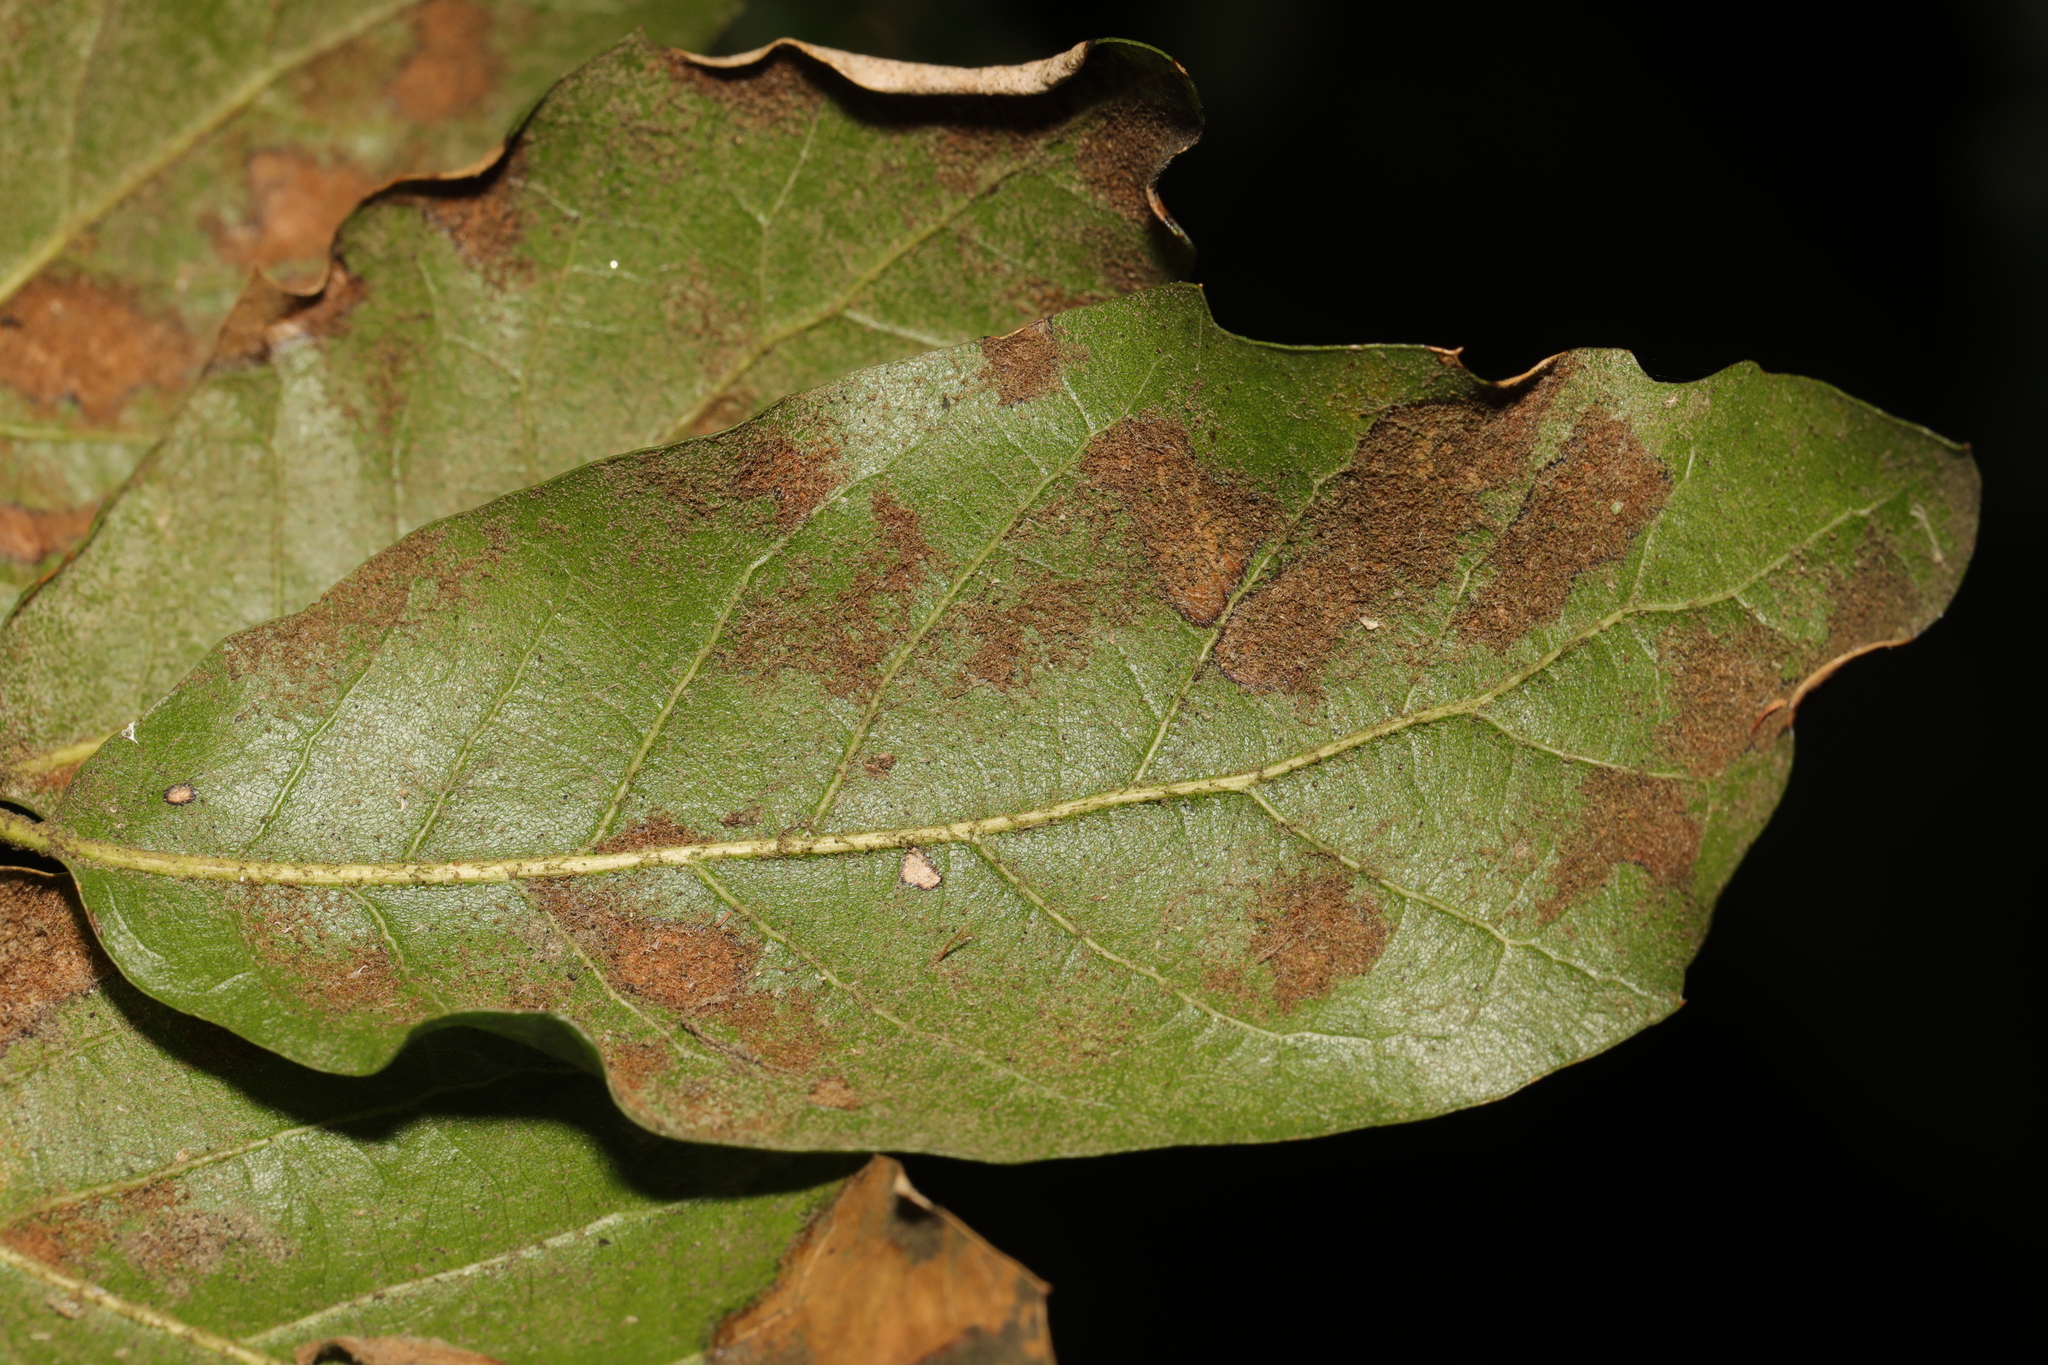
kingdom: Animalia
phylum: Arthropoda
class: Arachnida
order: Trombidiformes
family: Eriophyidae
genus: Aceria
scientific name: Aceria ilicis
